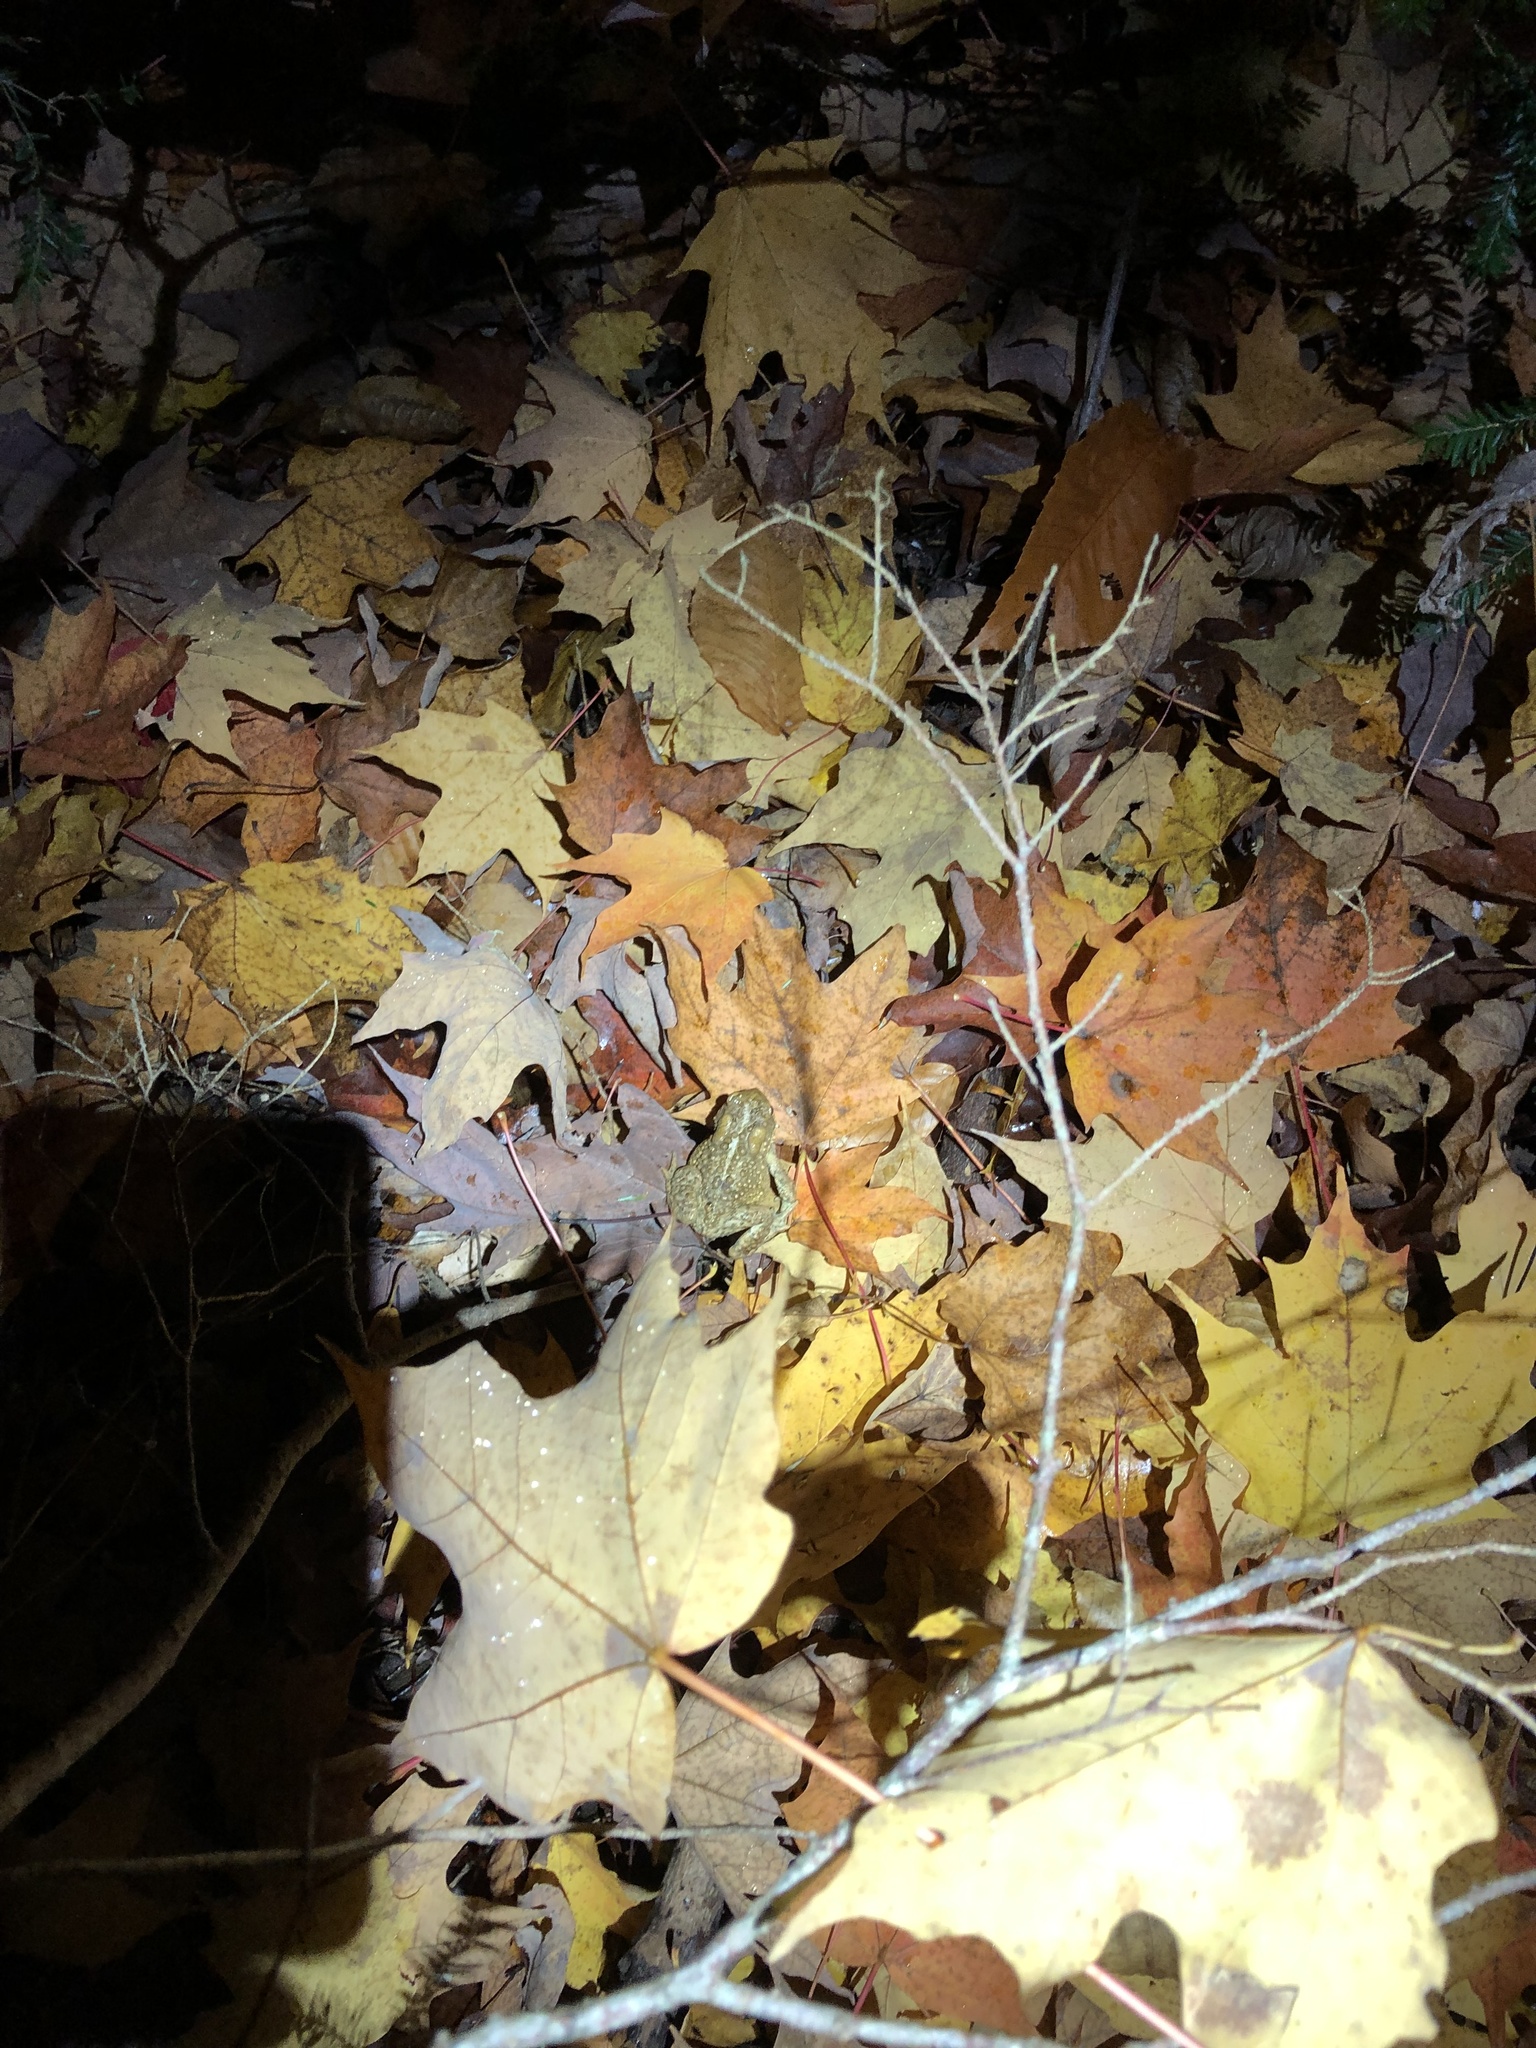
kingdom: Animalia
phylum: Chordata
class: Amphibia
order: Anura
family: Bufonidae
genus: Anaxyrus
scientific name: Anaxyrus americanus
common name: American toad
